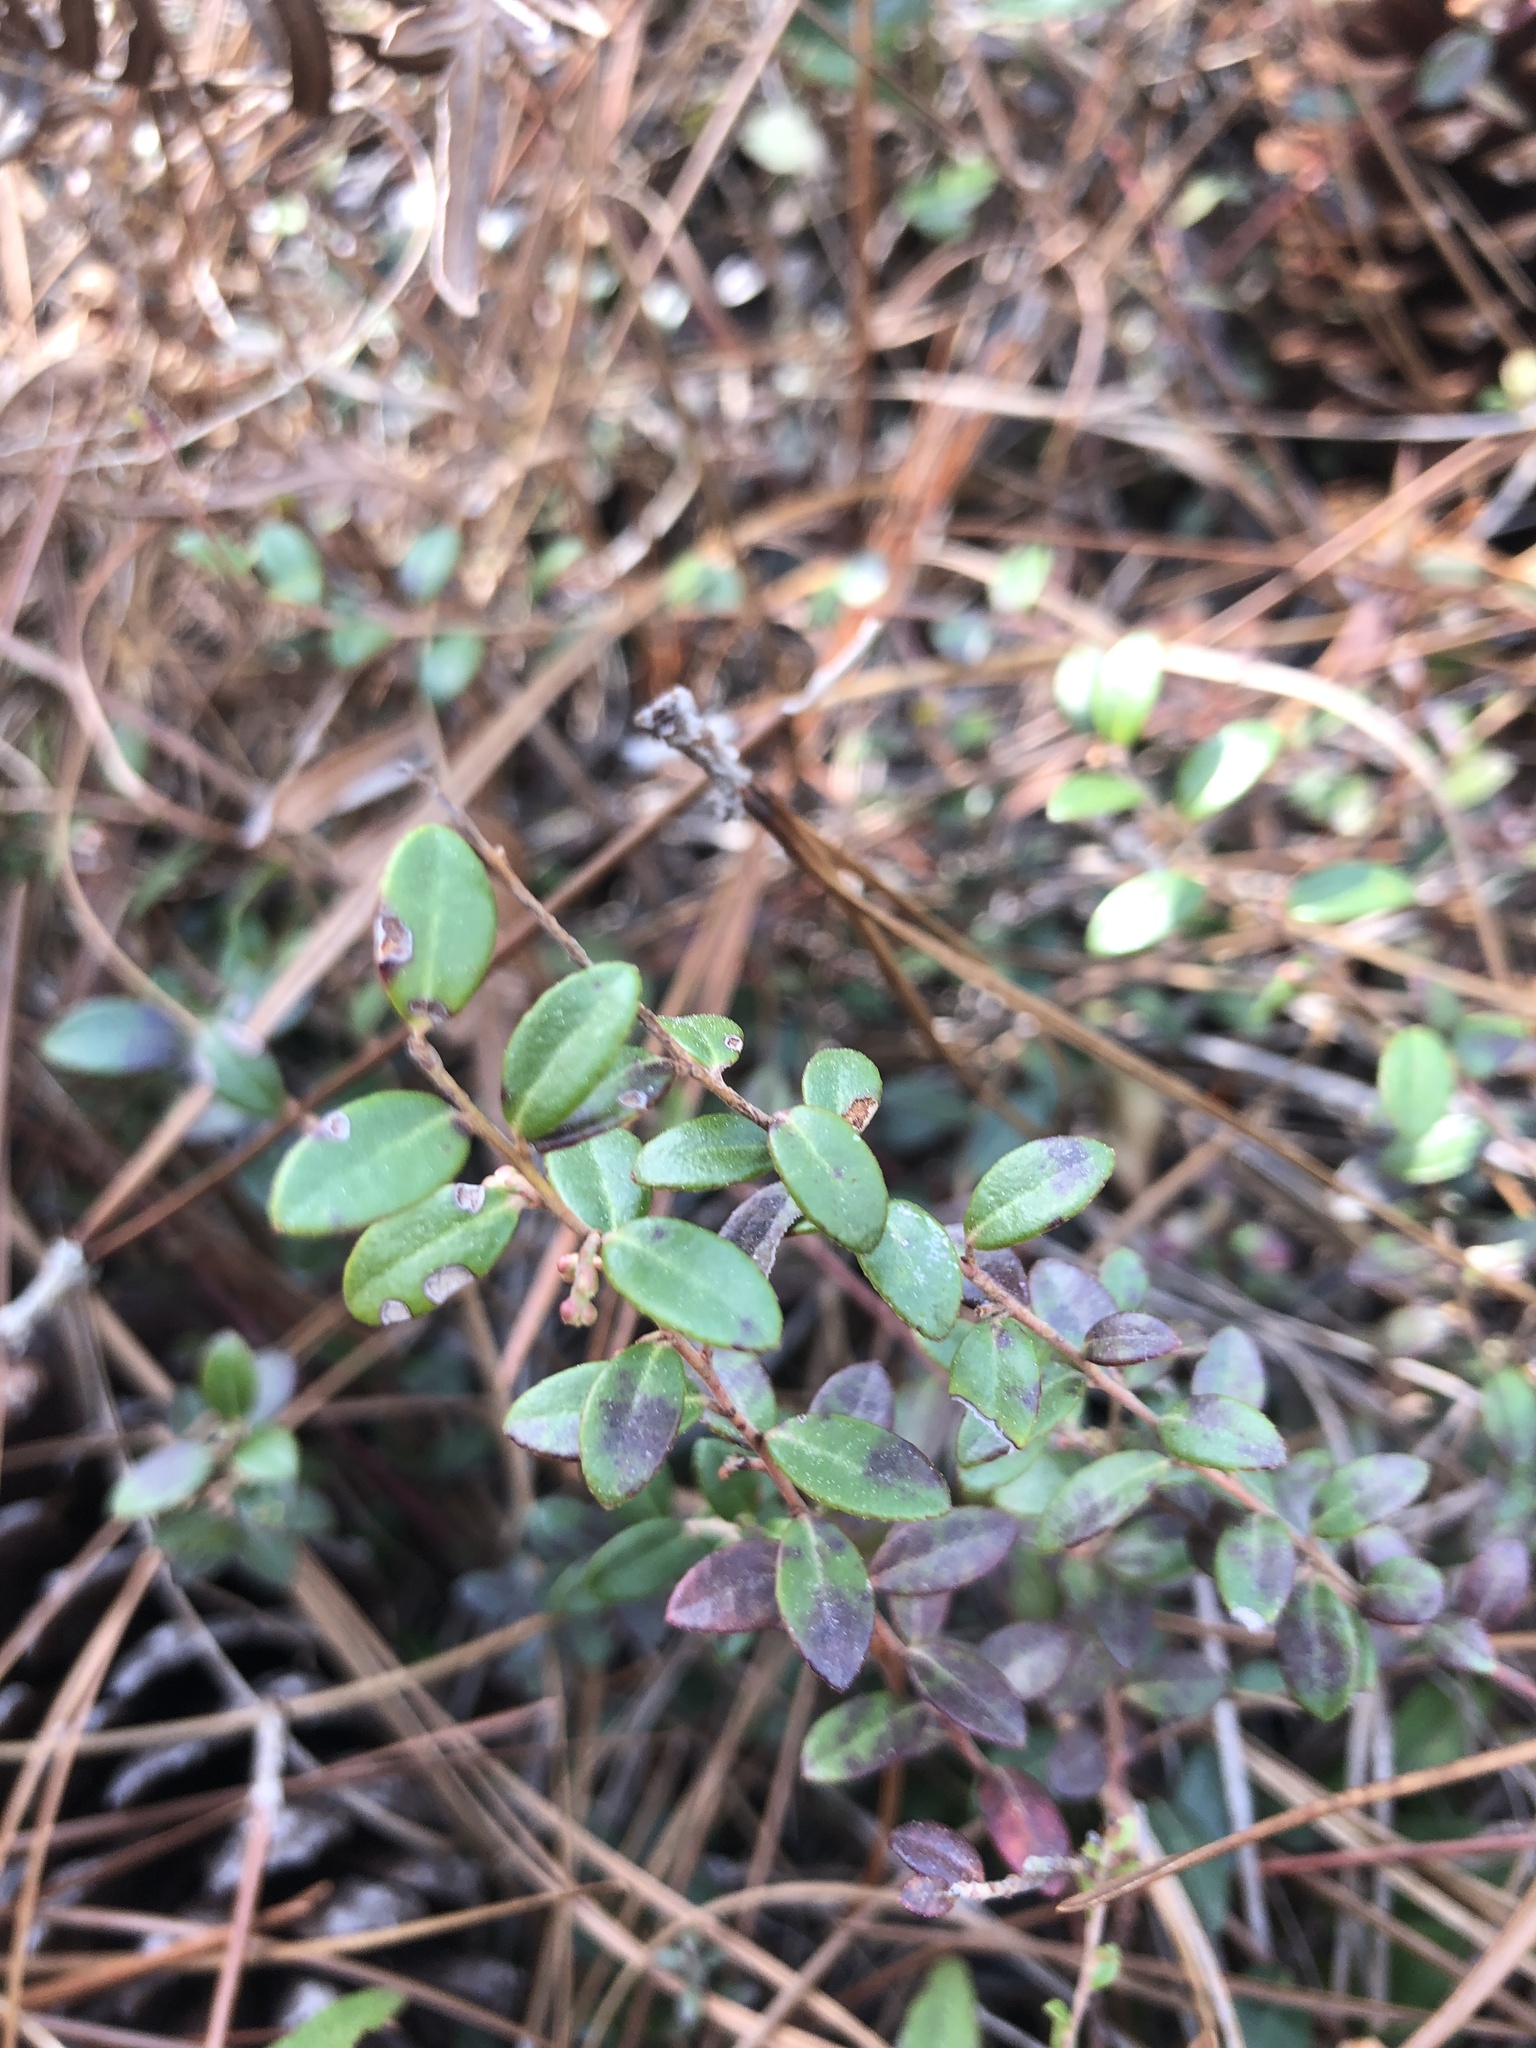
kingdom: Plantae
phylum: Tracheophyta
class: Magnoliopsida
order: Ericales
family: Ericaceae
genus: Kalmia
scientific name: Kalmia buxifolia
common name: Sandmyrtle
